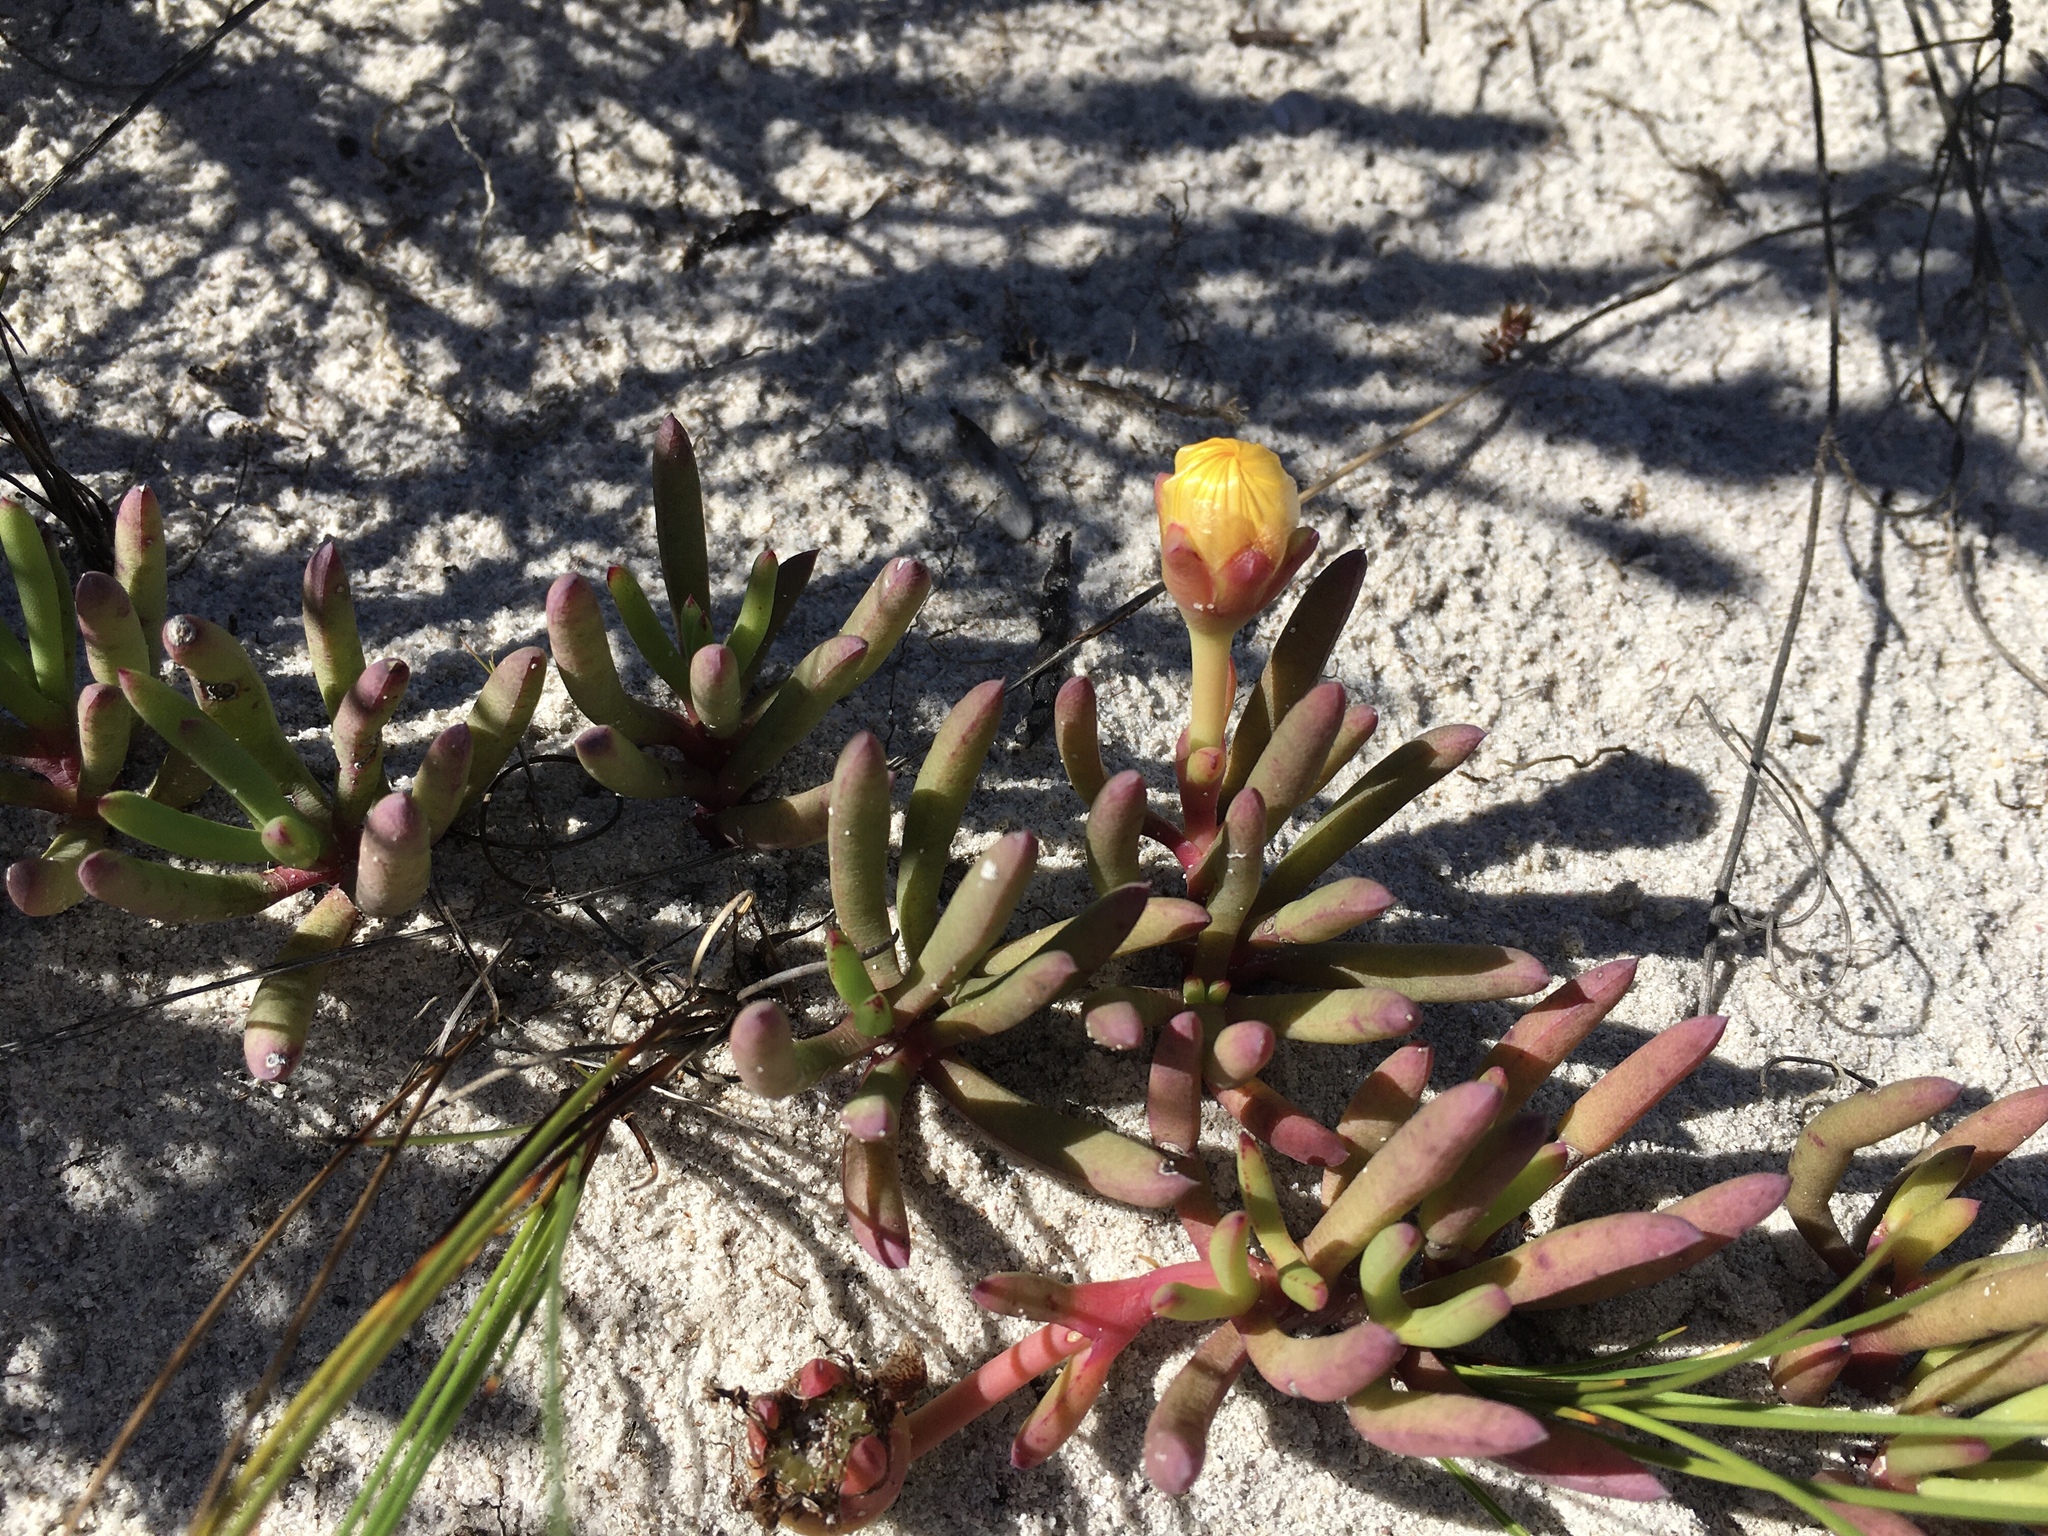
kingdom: Plantae
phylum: Tracheophyta
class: Magnoliopsida
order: Caryophyllales
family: Aizoaceae
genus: Jordaaniella
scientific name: Jordaaniella dubia
